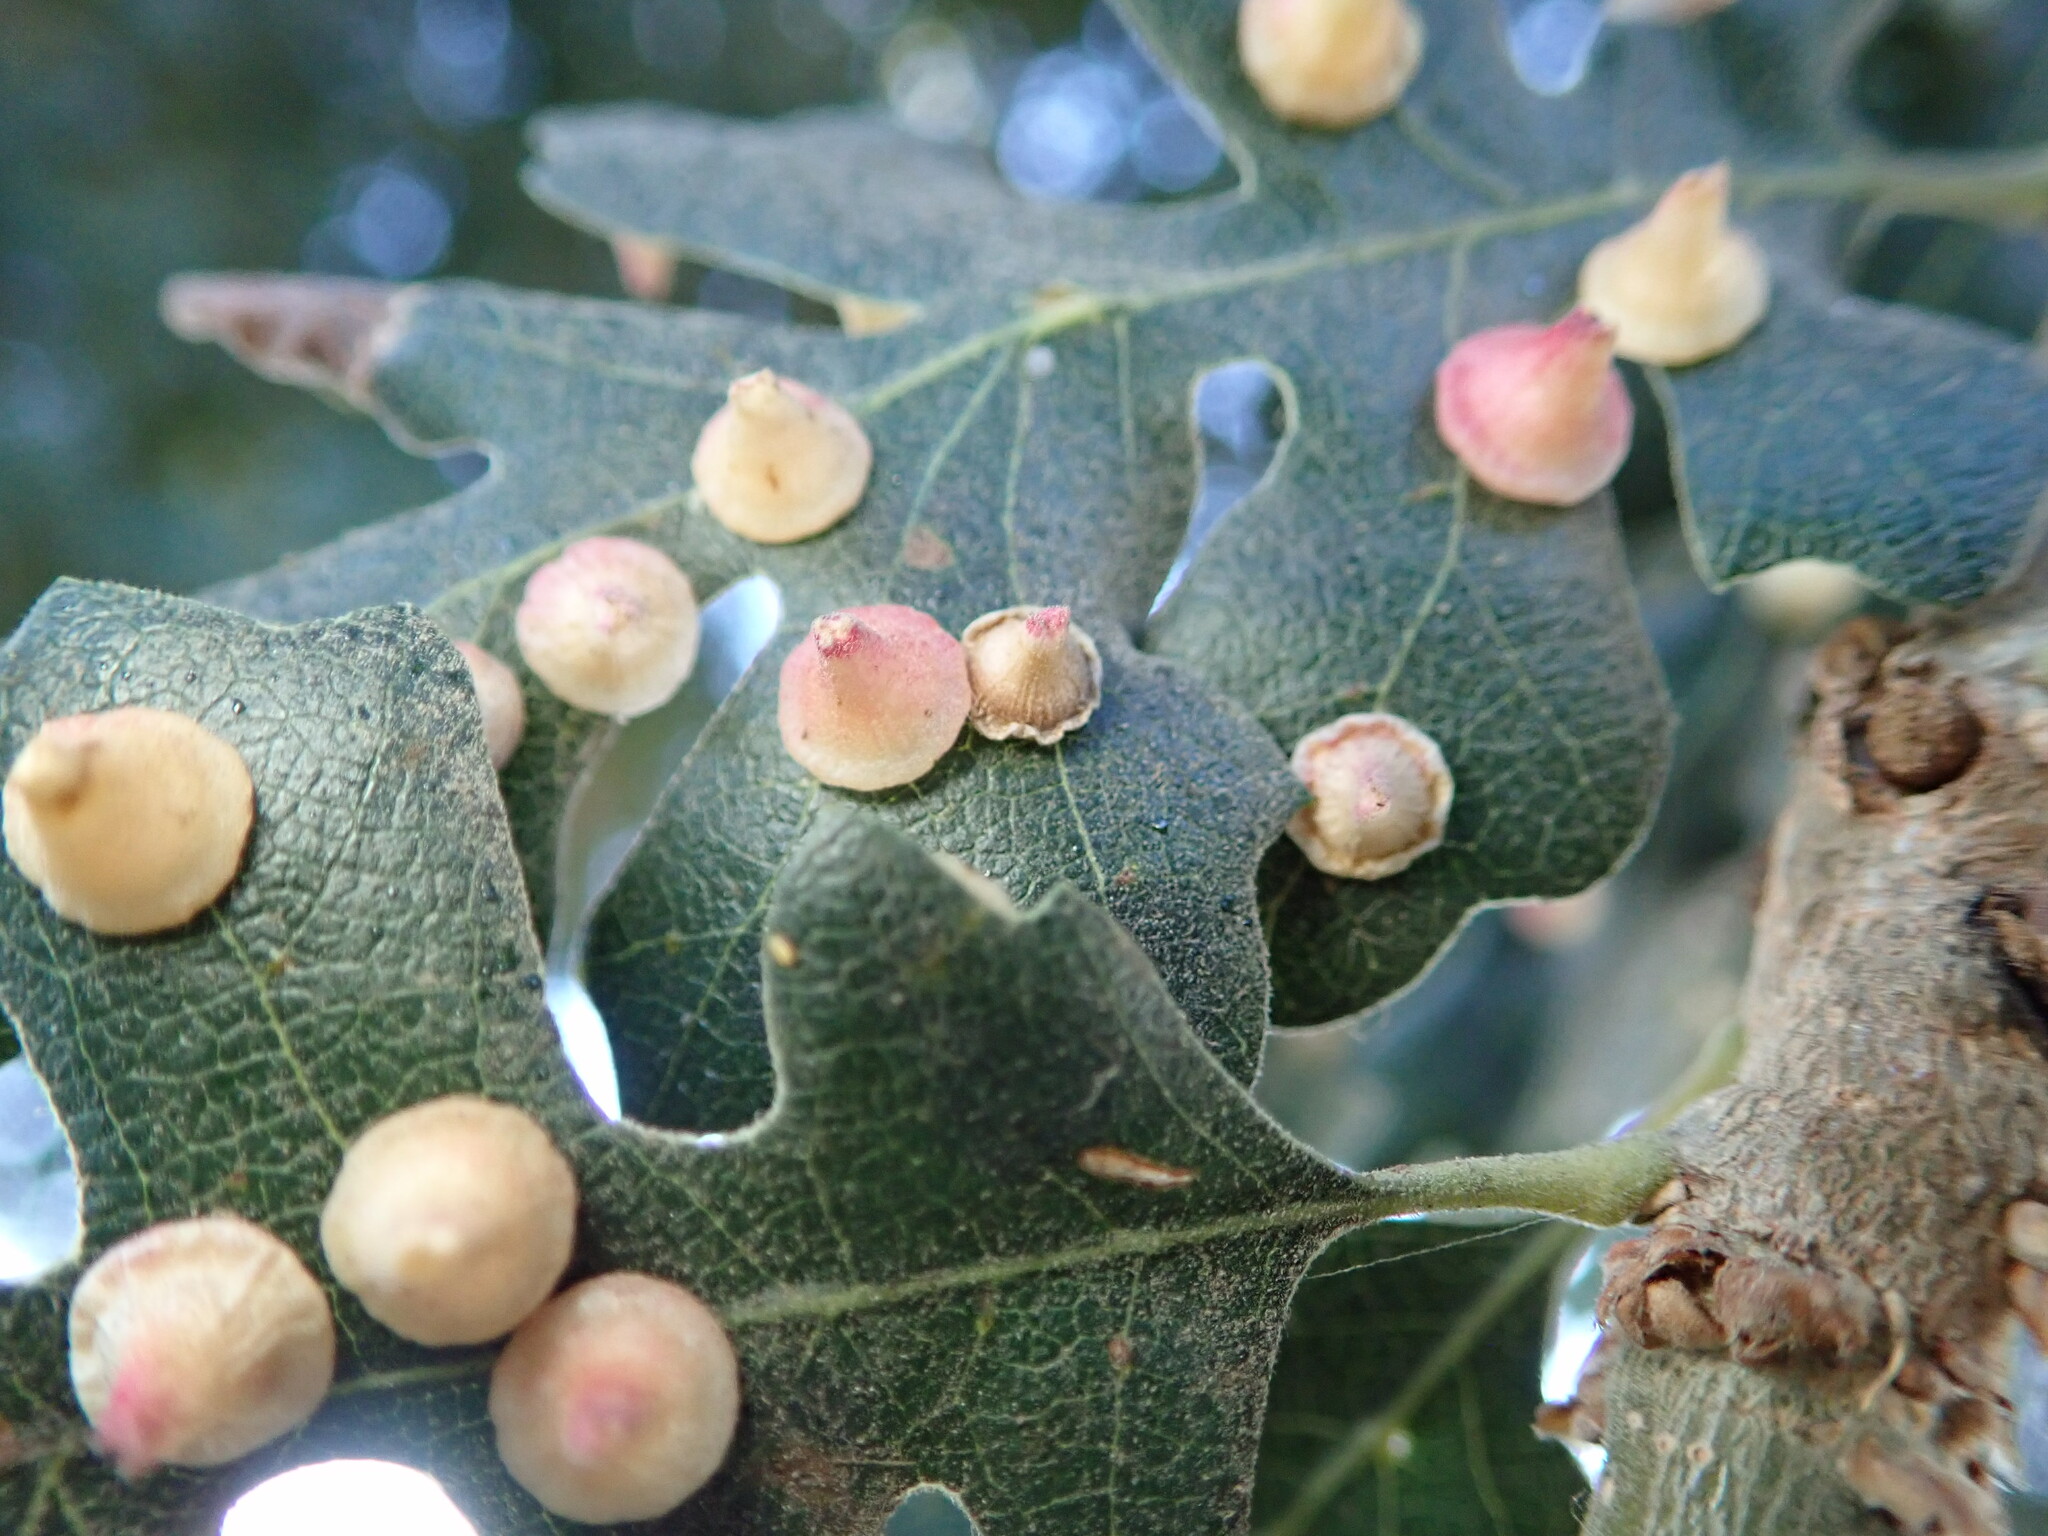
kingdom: Animalia
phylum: Arthropoda
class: Insecta
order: Hymenoptera
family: Cynipidae
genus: Andricus
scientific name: Andricus
